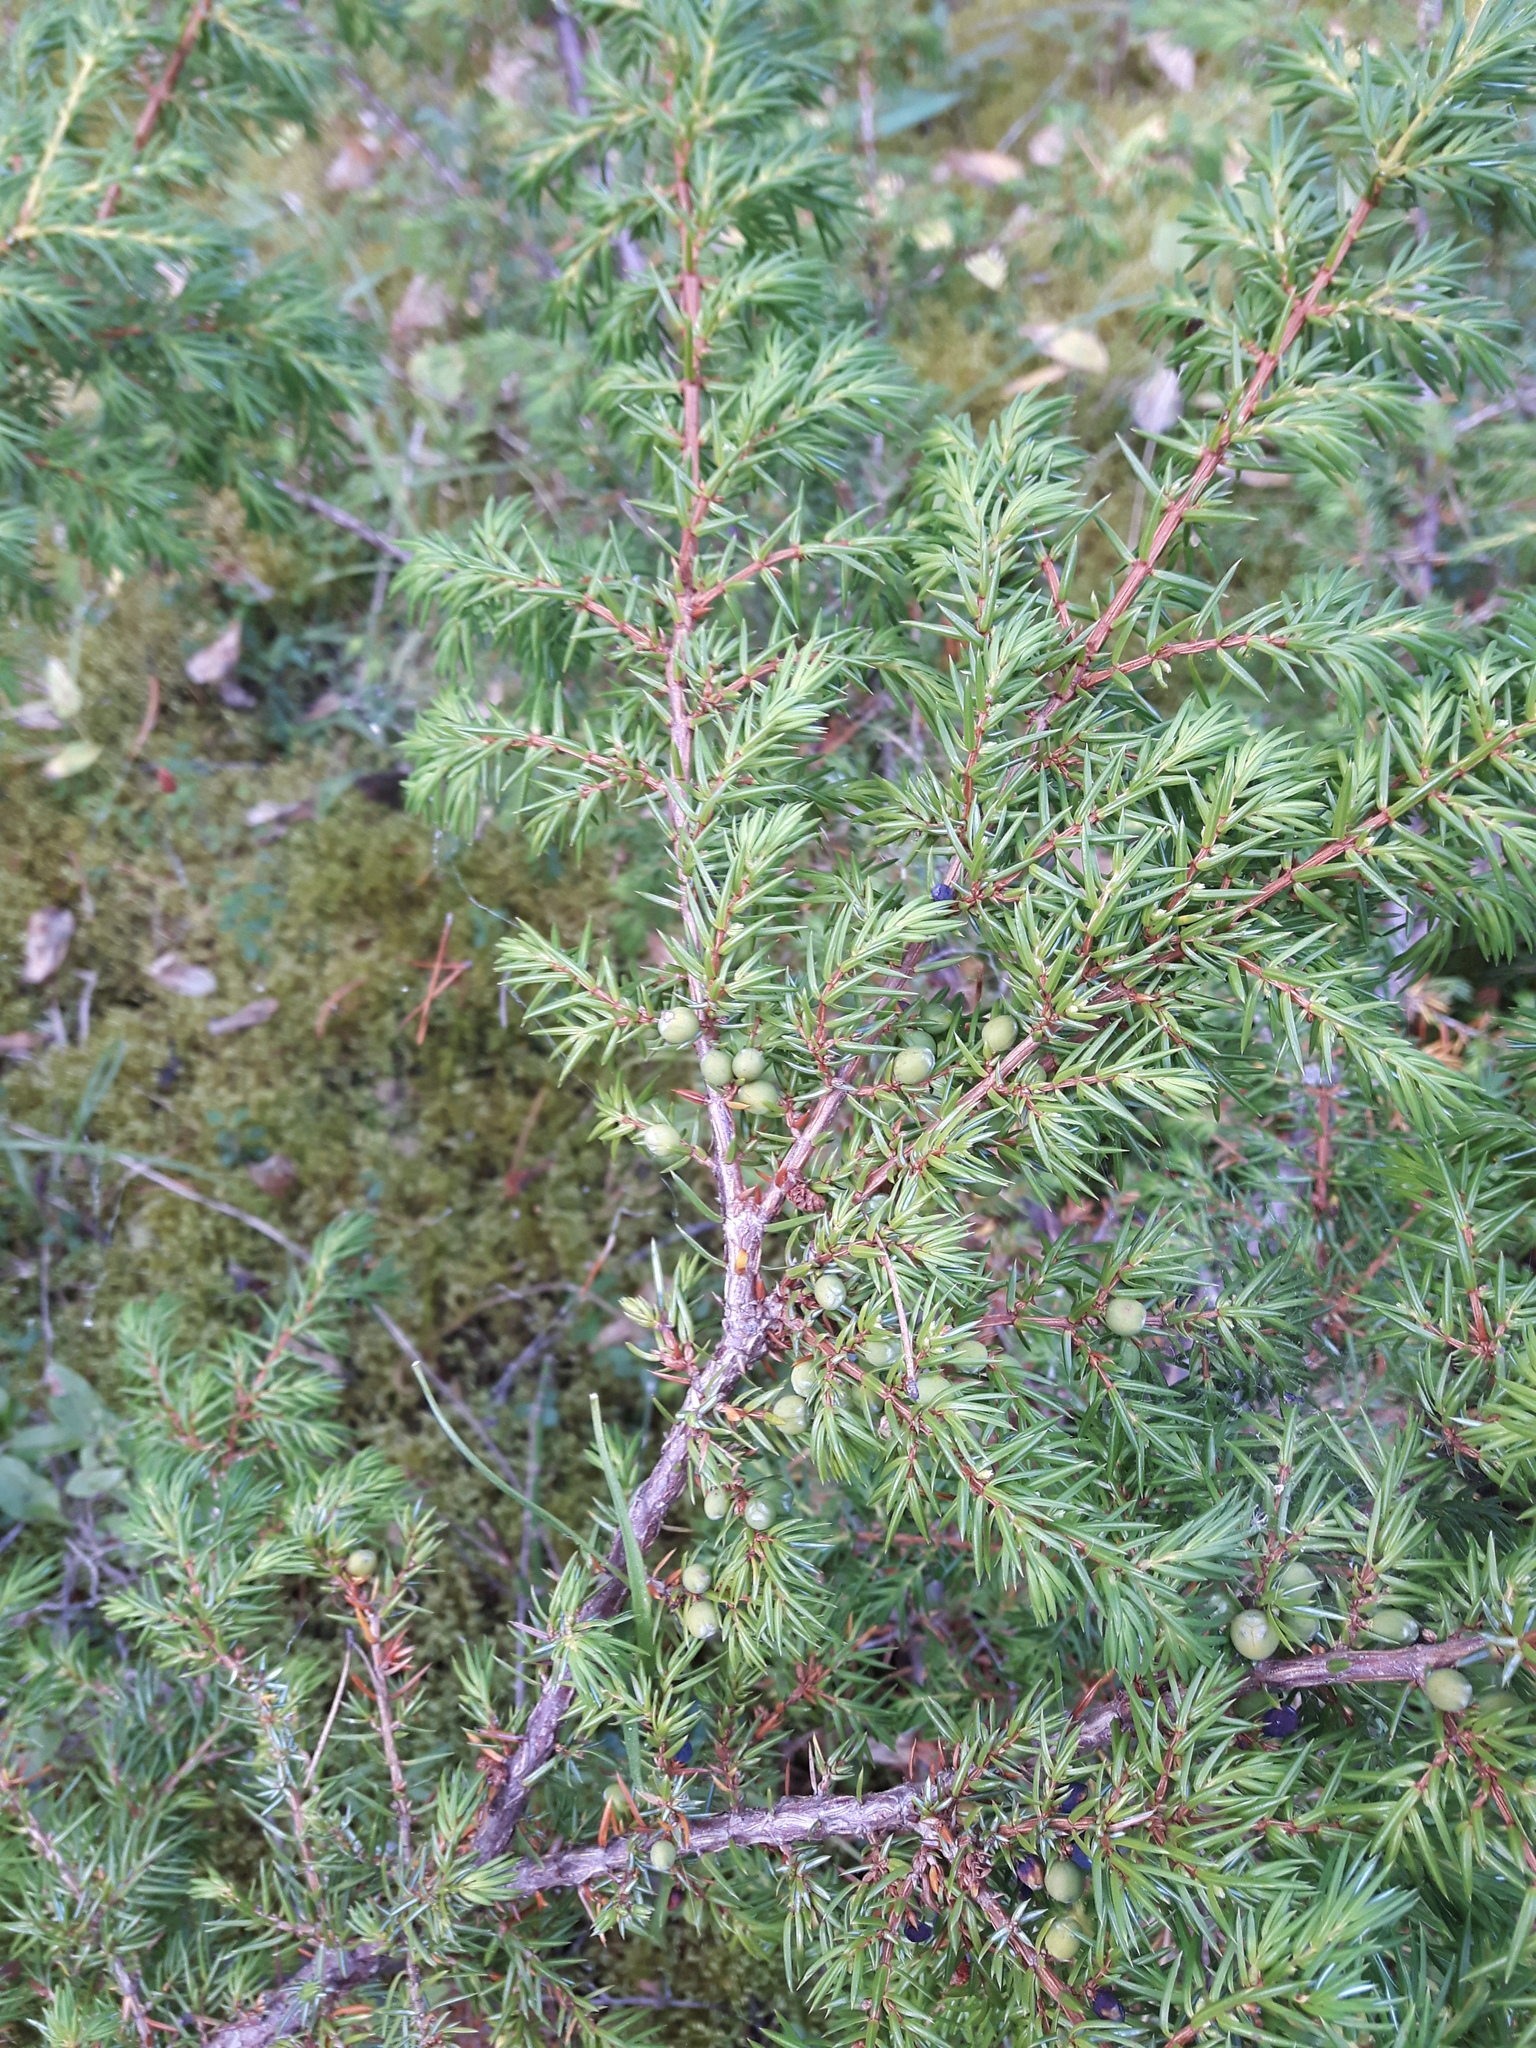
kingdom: Plantae
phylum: Tracheophyta
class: Pinopsida
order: Pinales
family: Cupressaceae
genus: Juniperus
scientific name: Juniperus communis
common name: Common juniper
